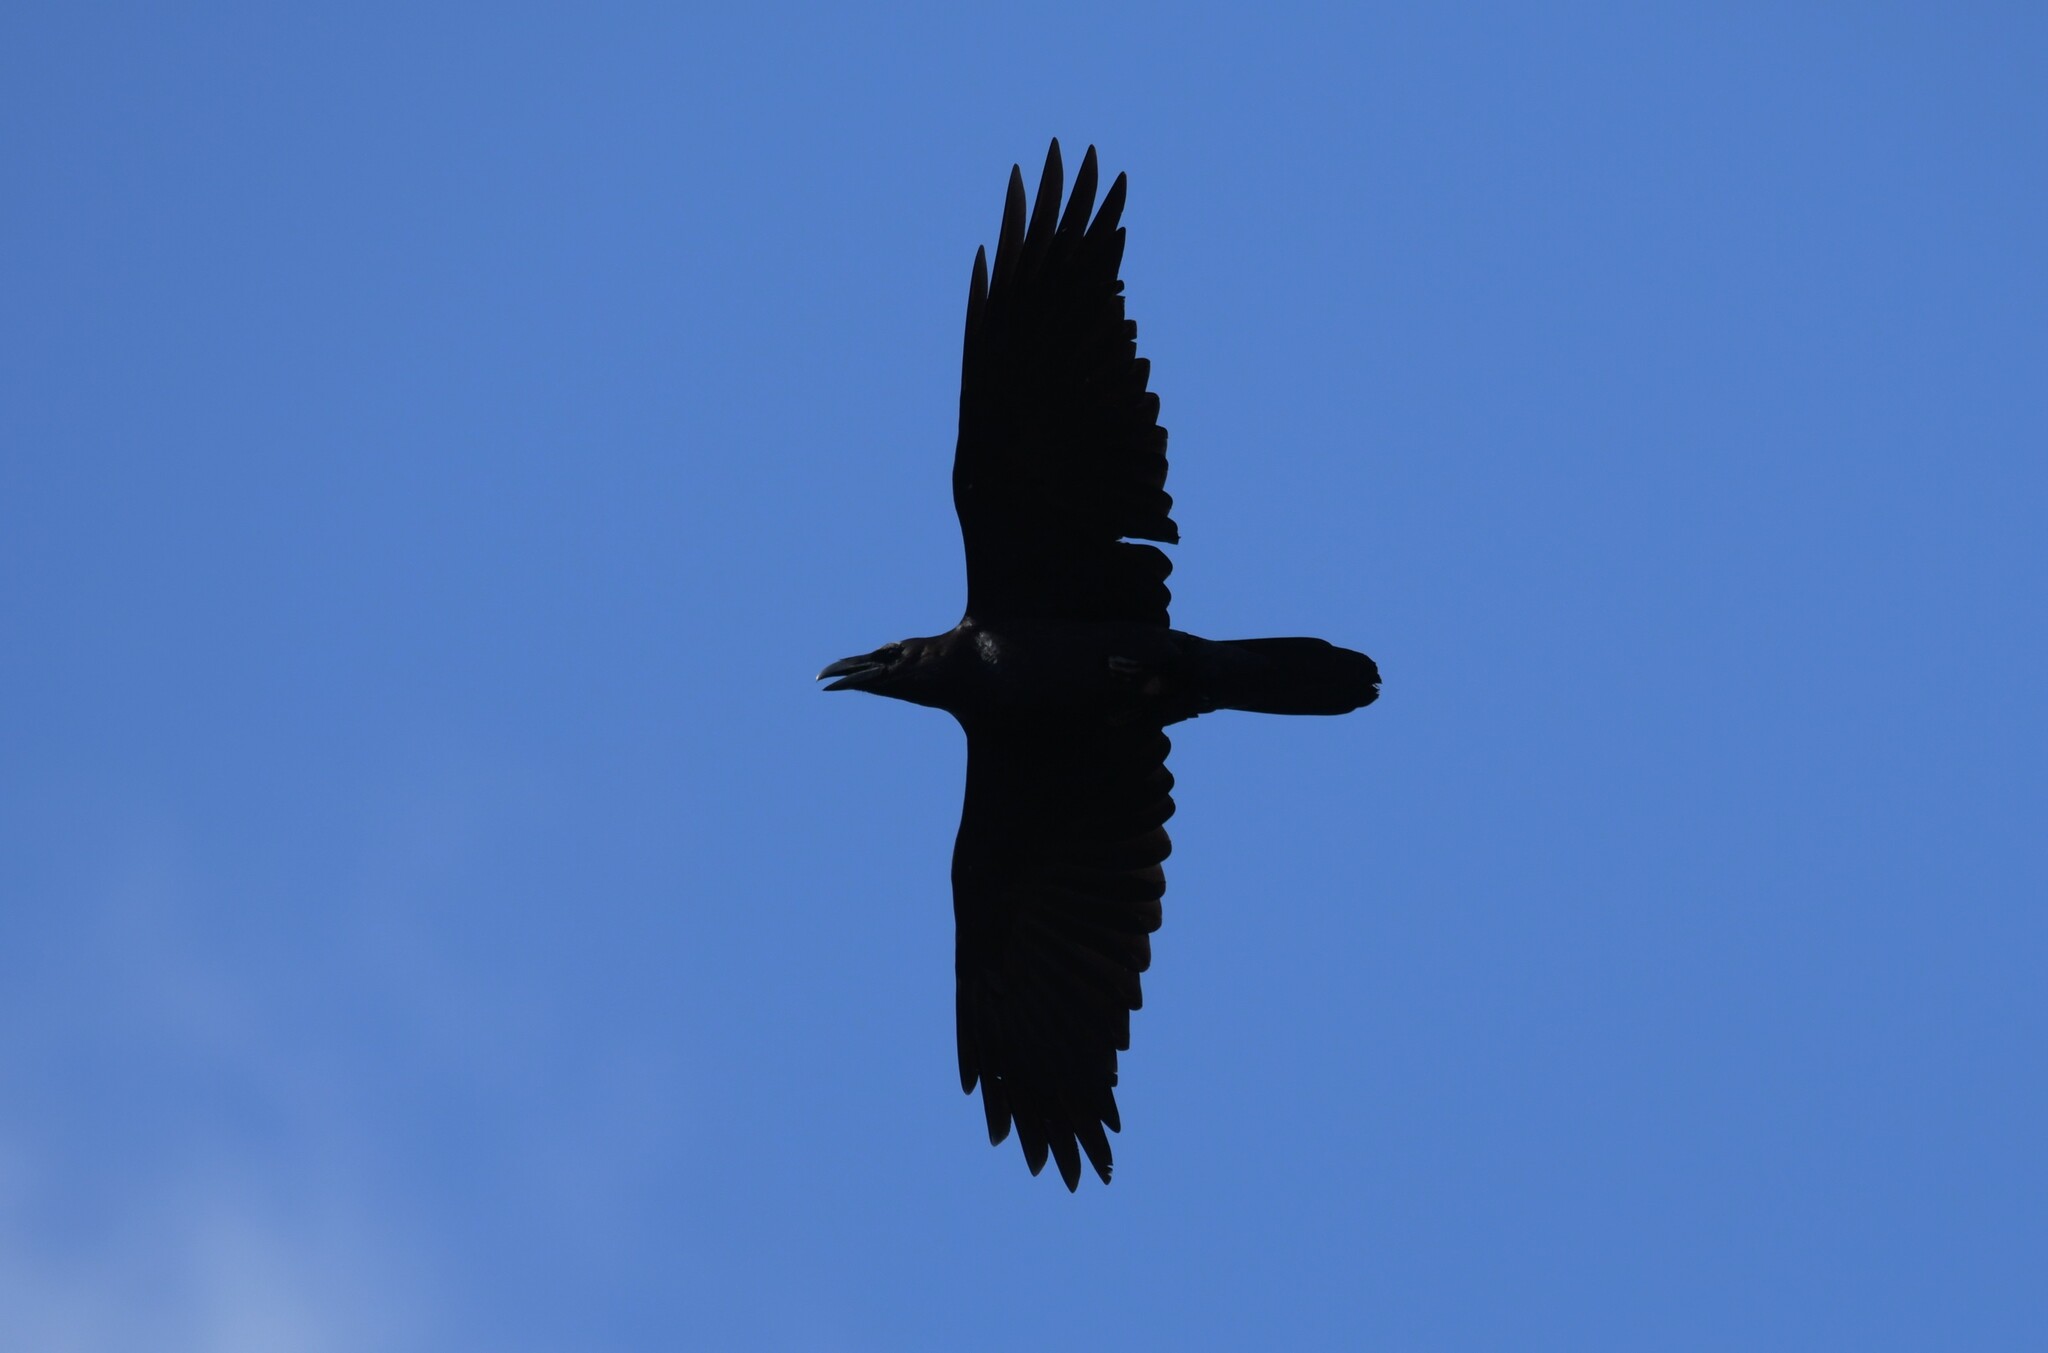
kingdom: Animalia
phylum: Chordata
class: Aves
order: Passeriformes
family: Corvidae
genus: Corvus
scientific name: Corvus corax
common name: Common raven
